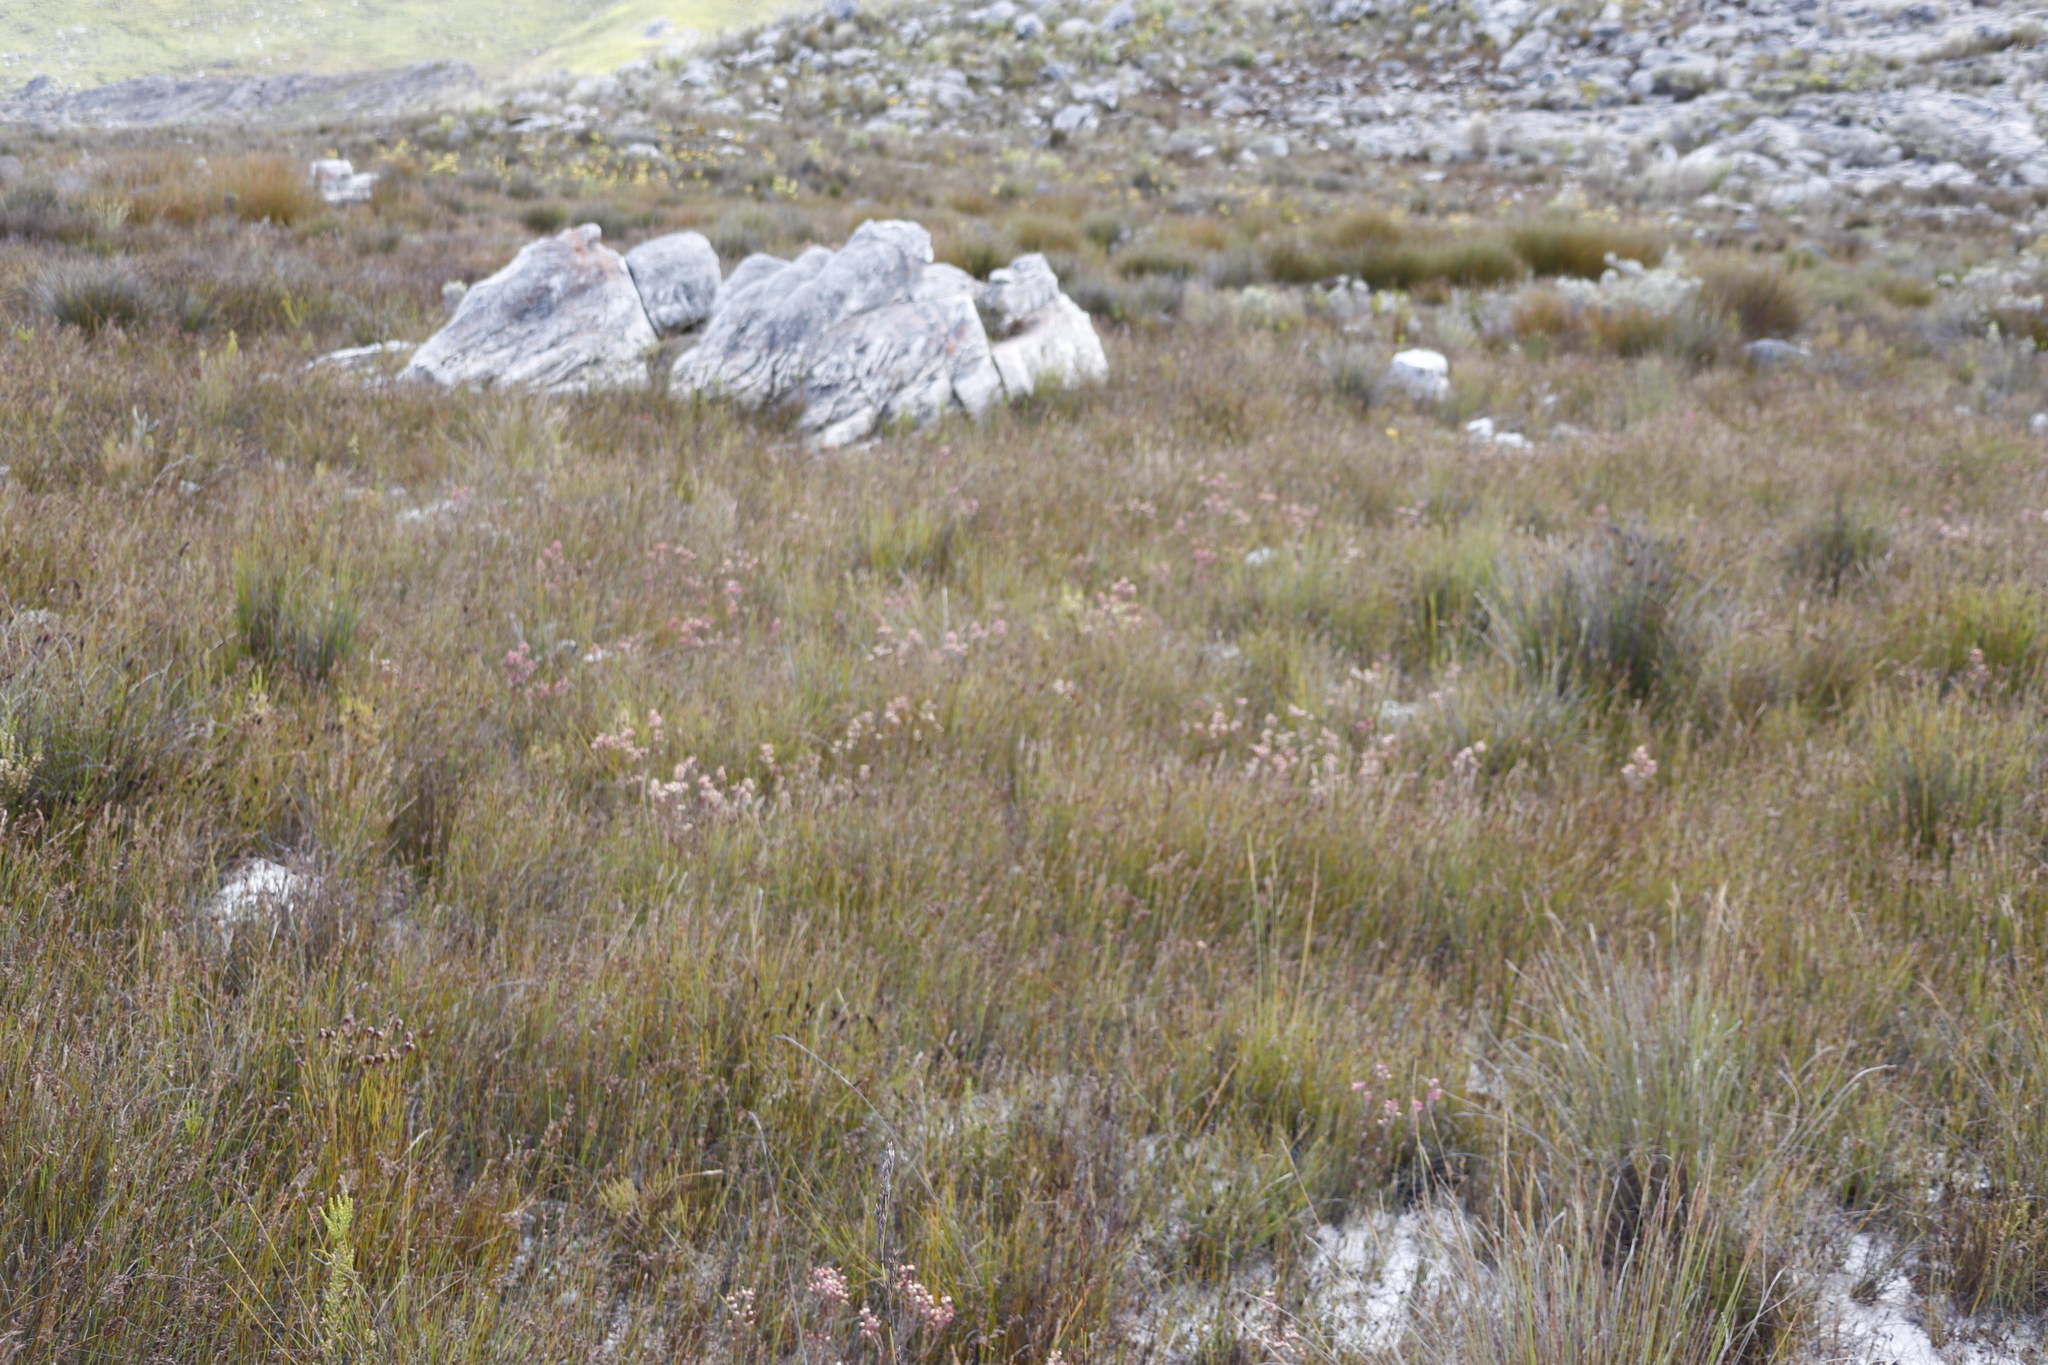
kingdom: Plantae
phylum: Tracheophyta
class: Magnoliopsida
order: Ericales
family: Ericaceae
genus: Erica
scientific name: Erica
